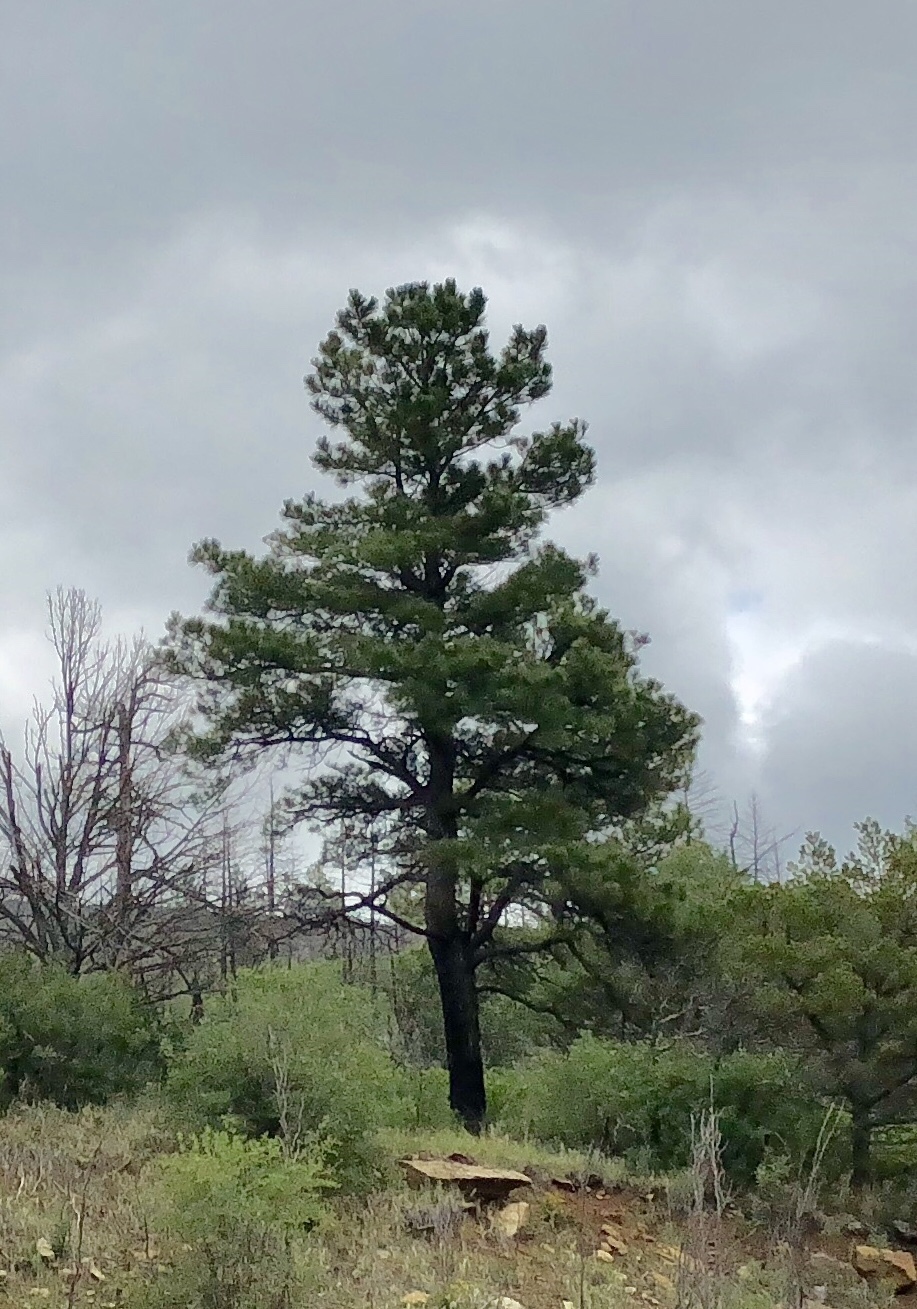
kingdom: Plantae
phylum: Tracheophyta
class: Pinopsida
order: Pinales
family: Pinaceae
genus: Pinus
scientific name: Pinus ponderosa
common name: Western yellow-pine
